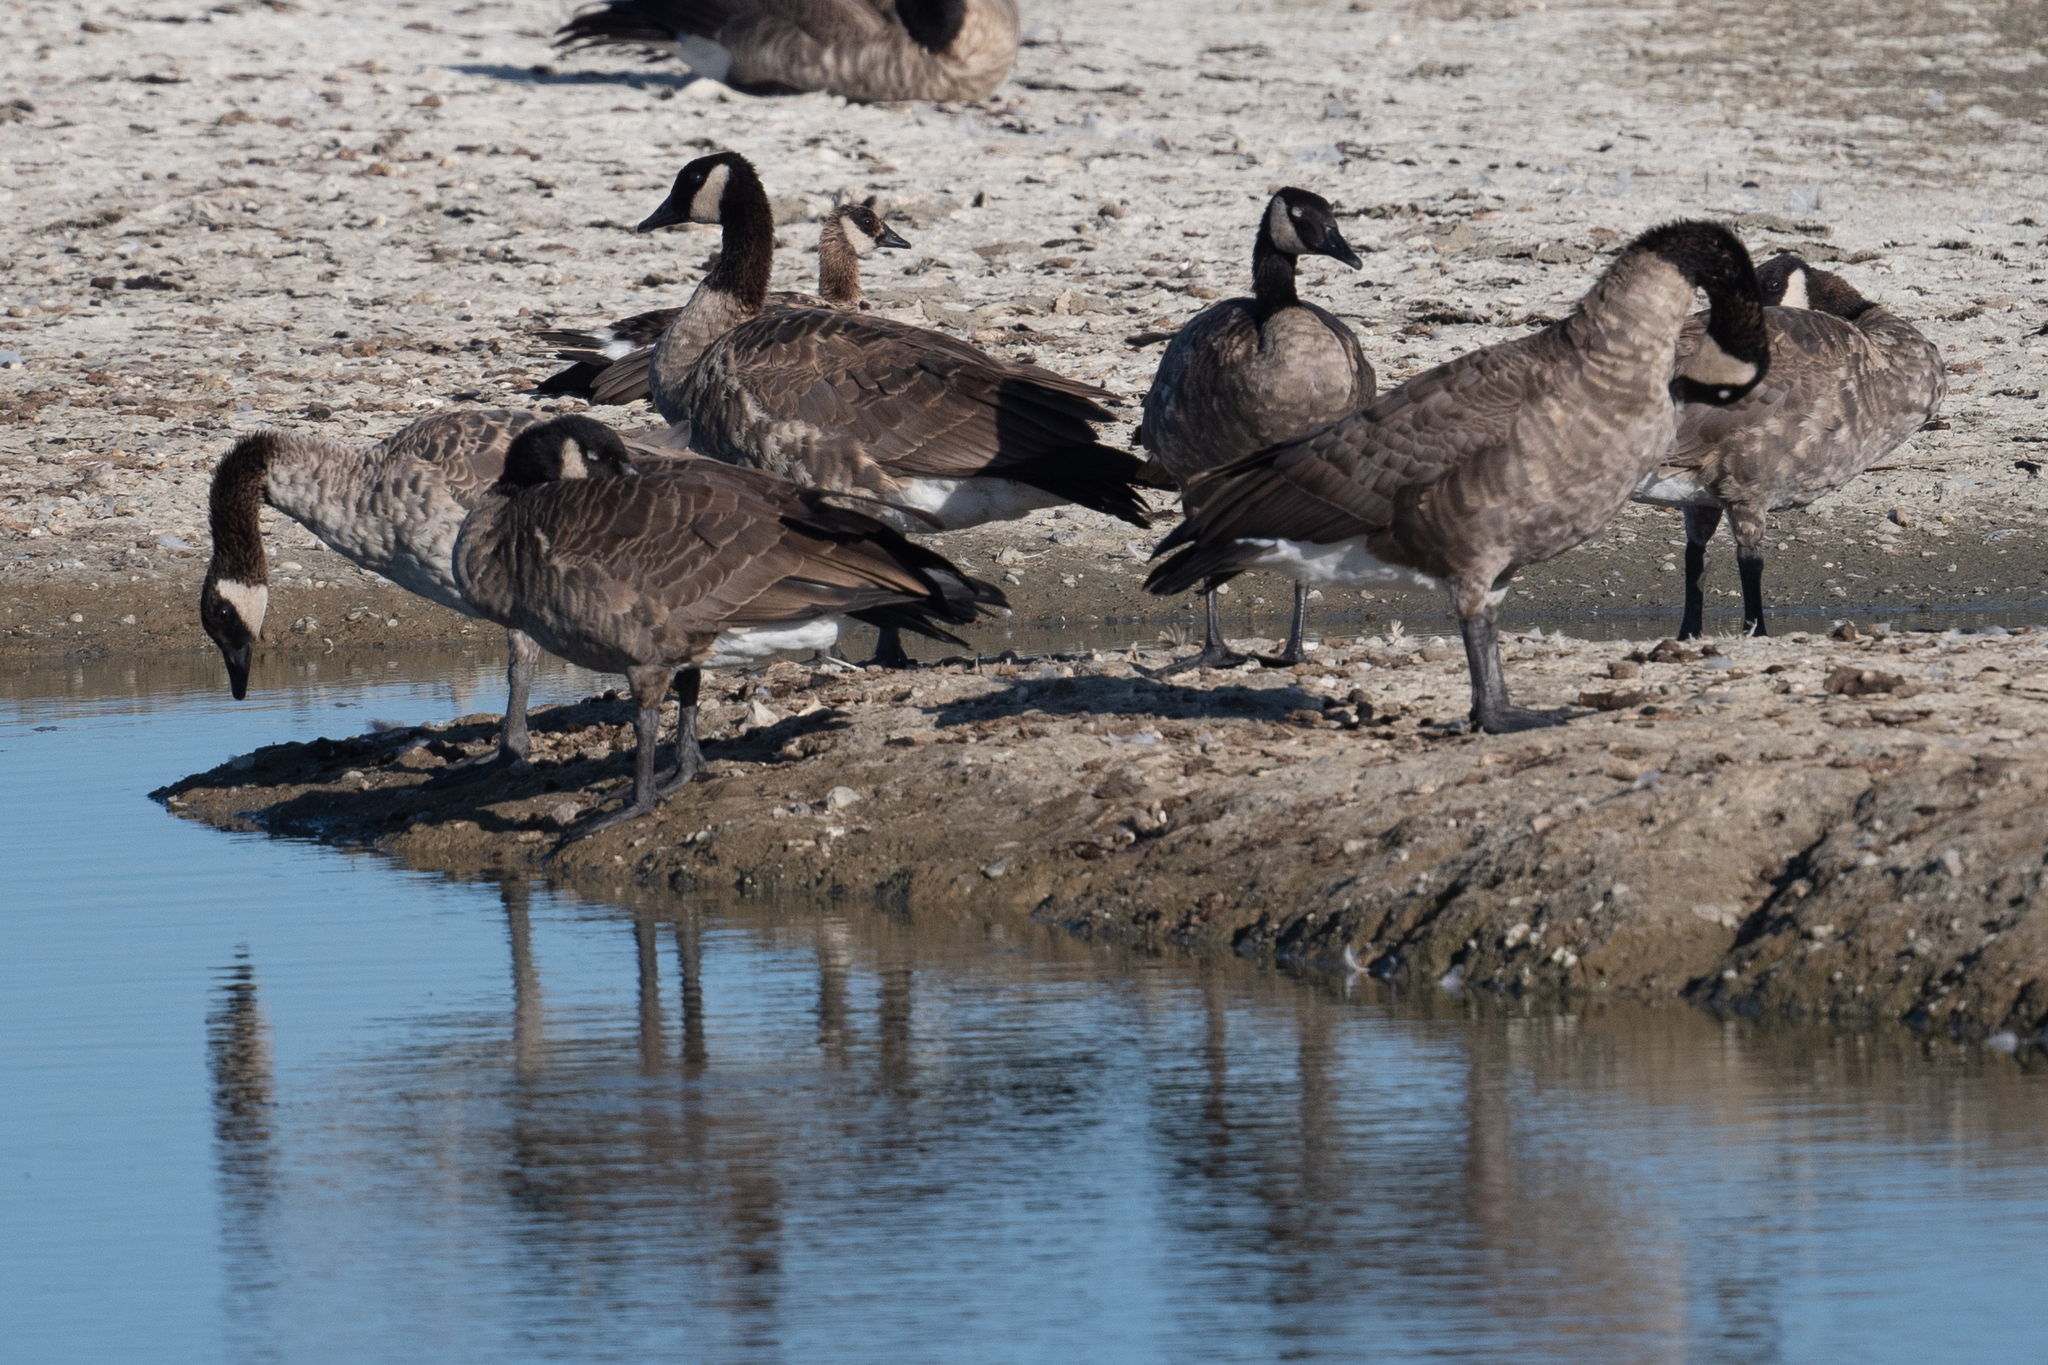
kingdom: Animalia
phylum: Chordata
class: Aves
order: Anseriformes
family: Anatidae
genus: Branta
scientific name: Branta canadensis
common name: Canada goose
